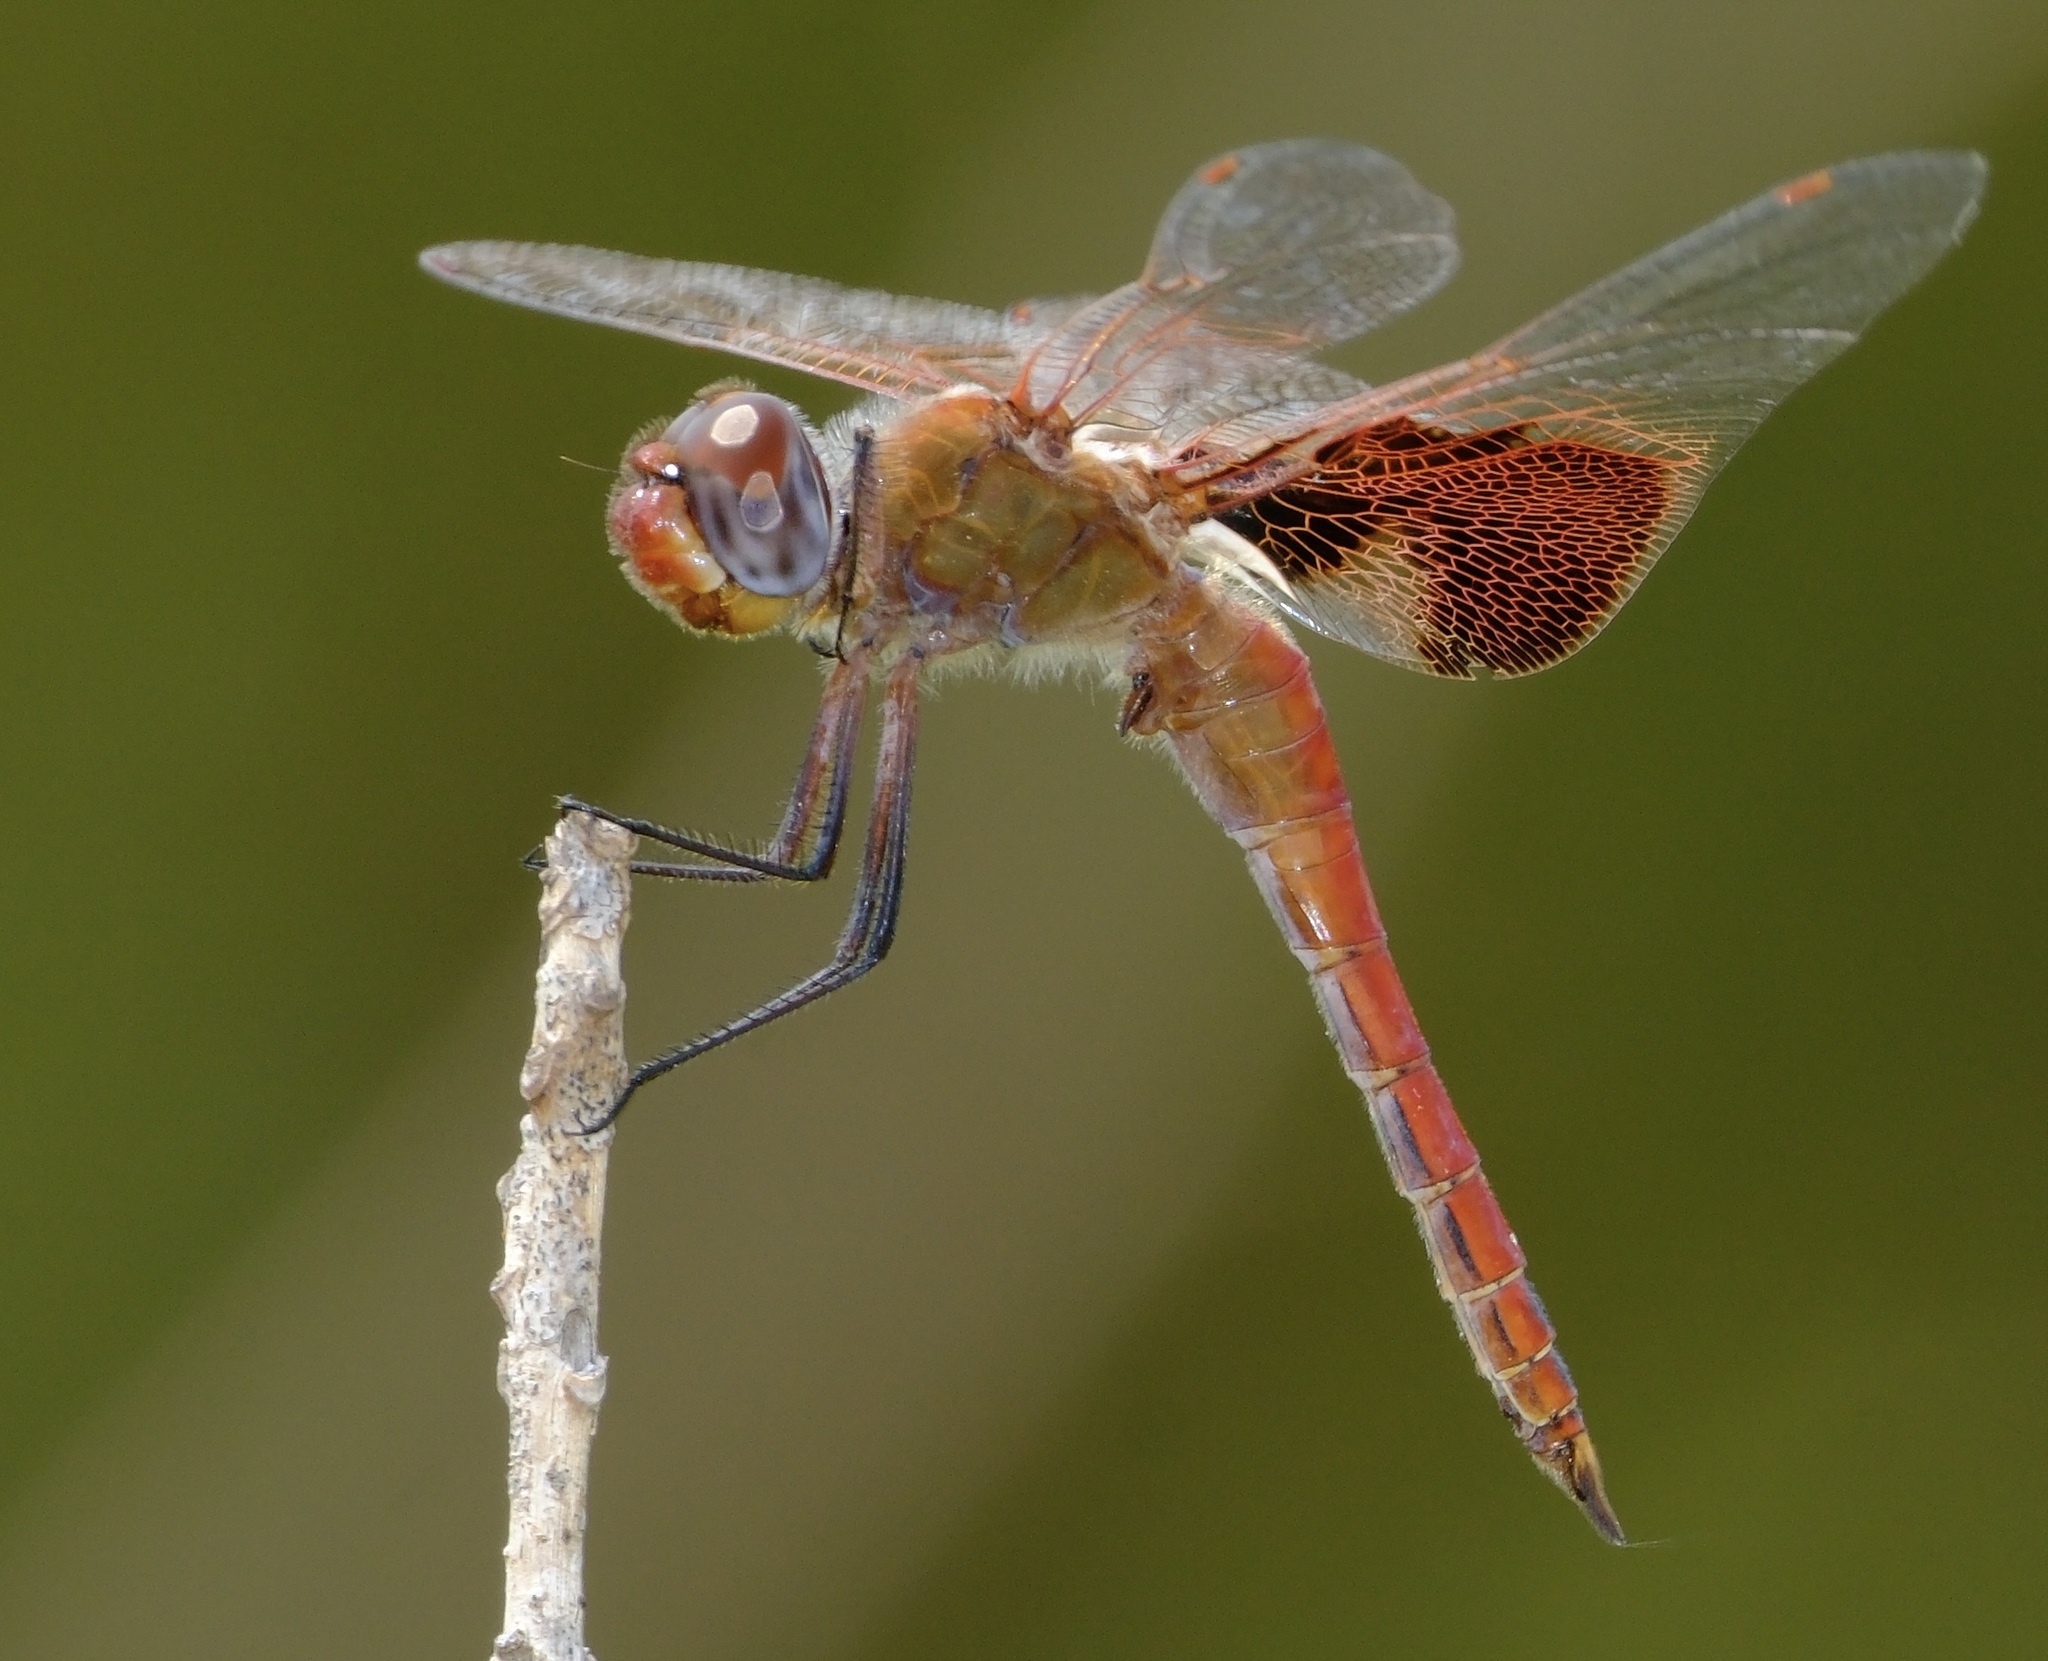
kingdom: Animalia
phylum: Arthropoda
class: Insecta
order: Odonata
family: Libellulidae
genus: Tramea
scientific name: Tramea onusta
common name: Red saddlebags
